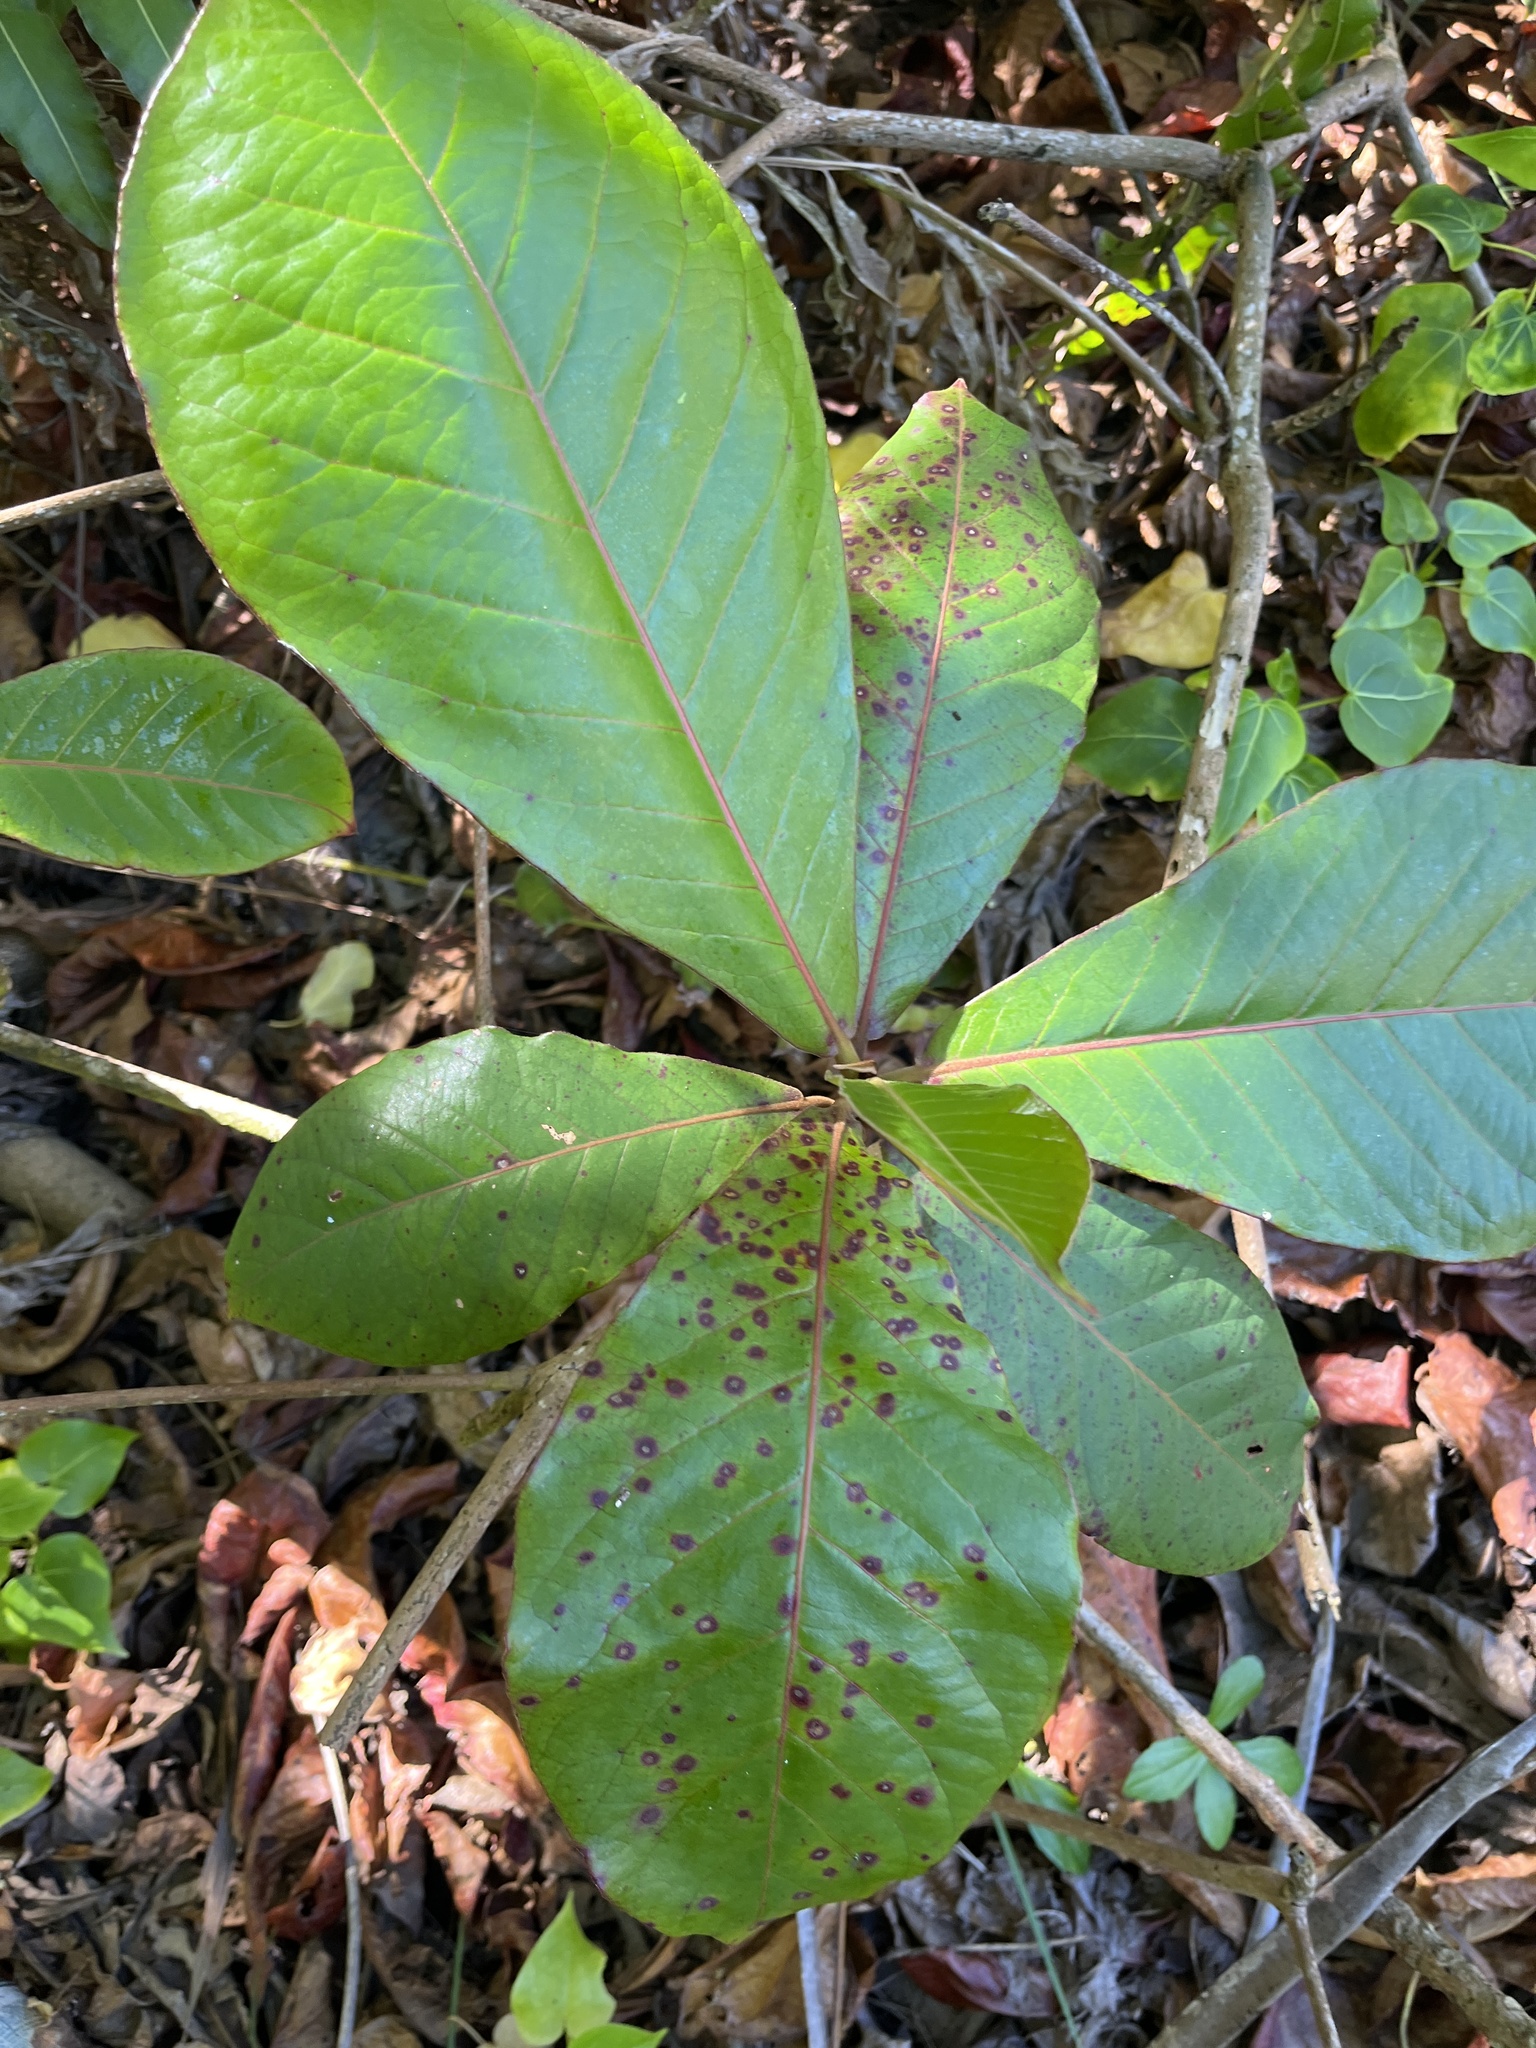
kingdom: Plantae
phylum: Tracheophyta
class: Magnoliopsida
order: Myrtales
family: Combretaceae
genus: Terminalia
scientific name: Terminalia catappa
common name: Tropical almond
